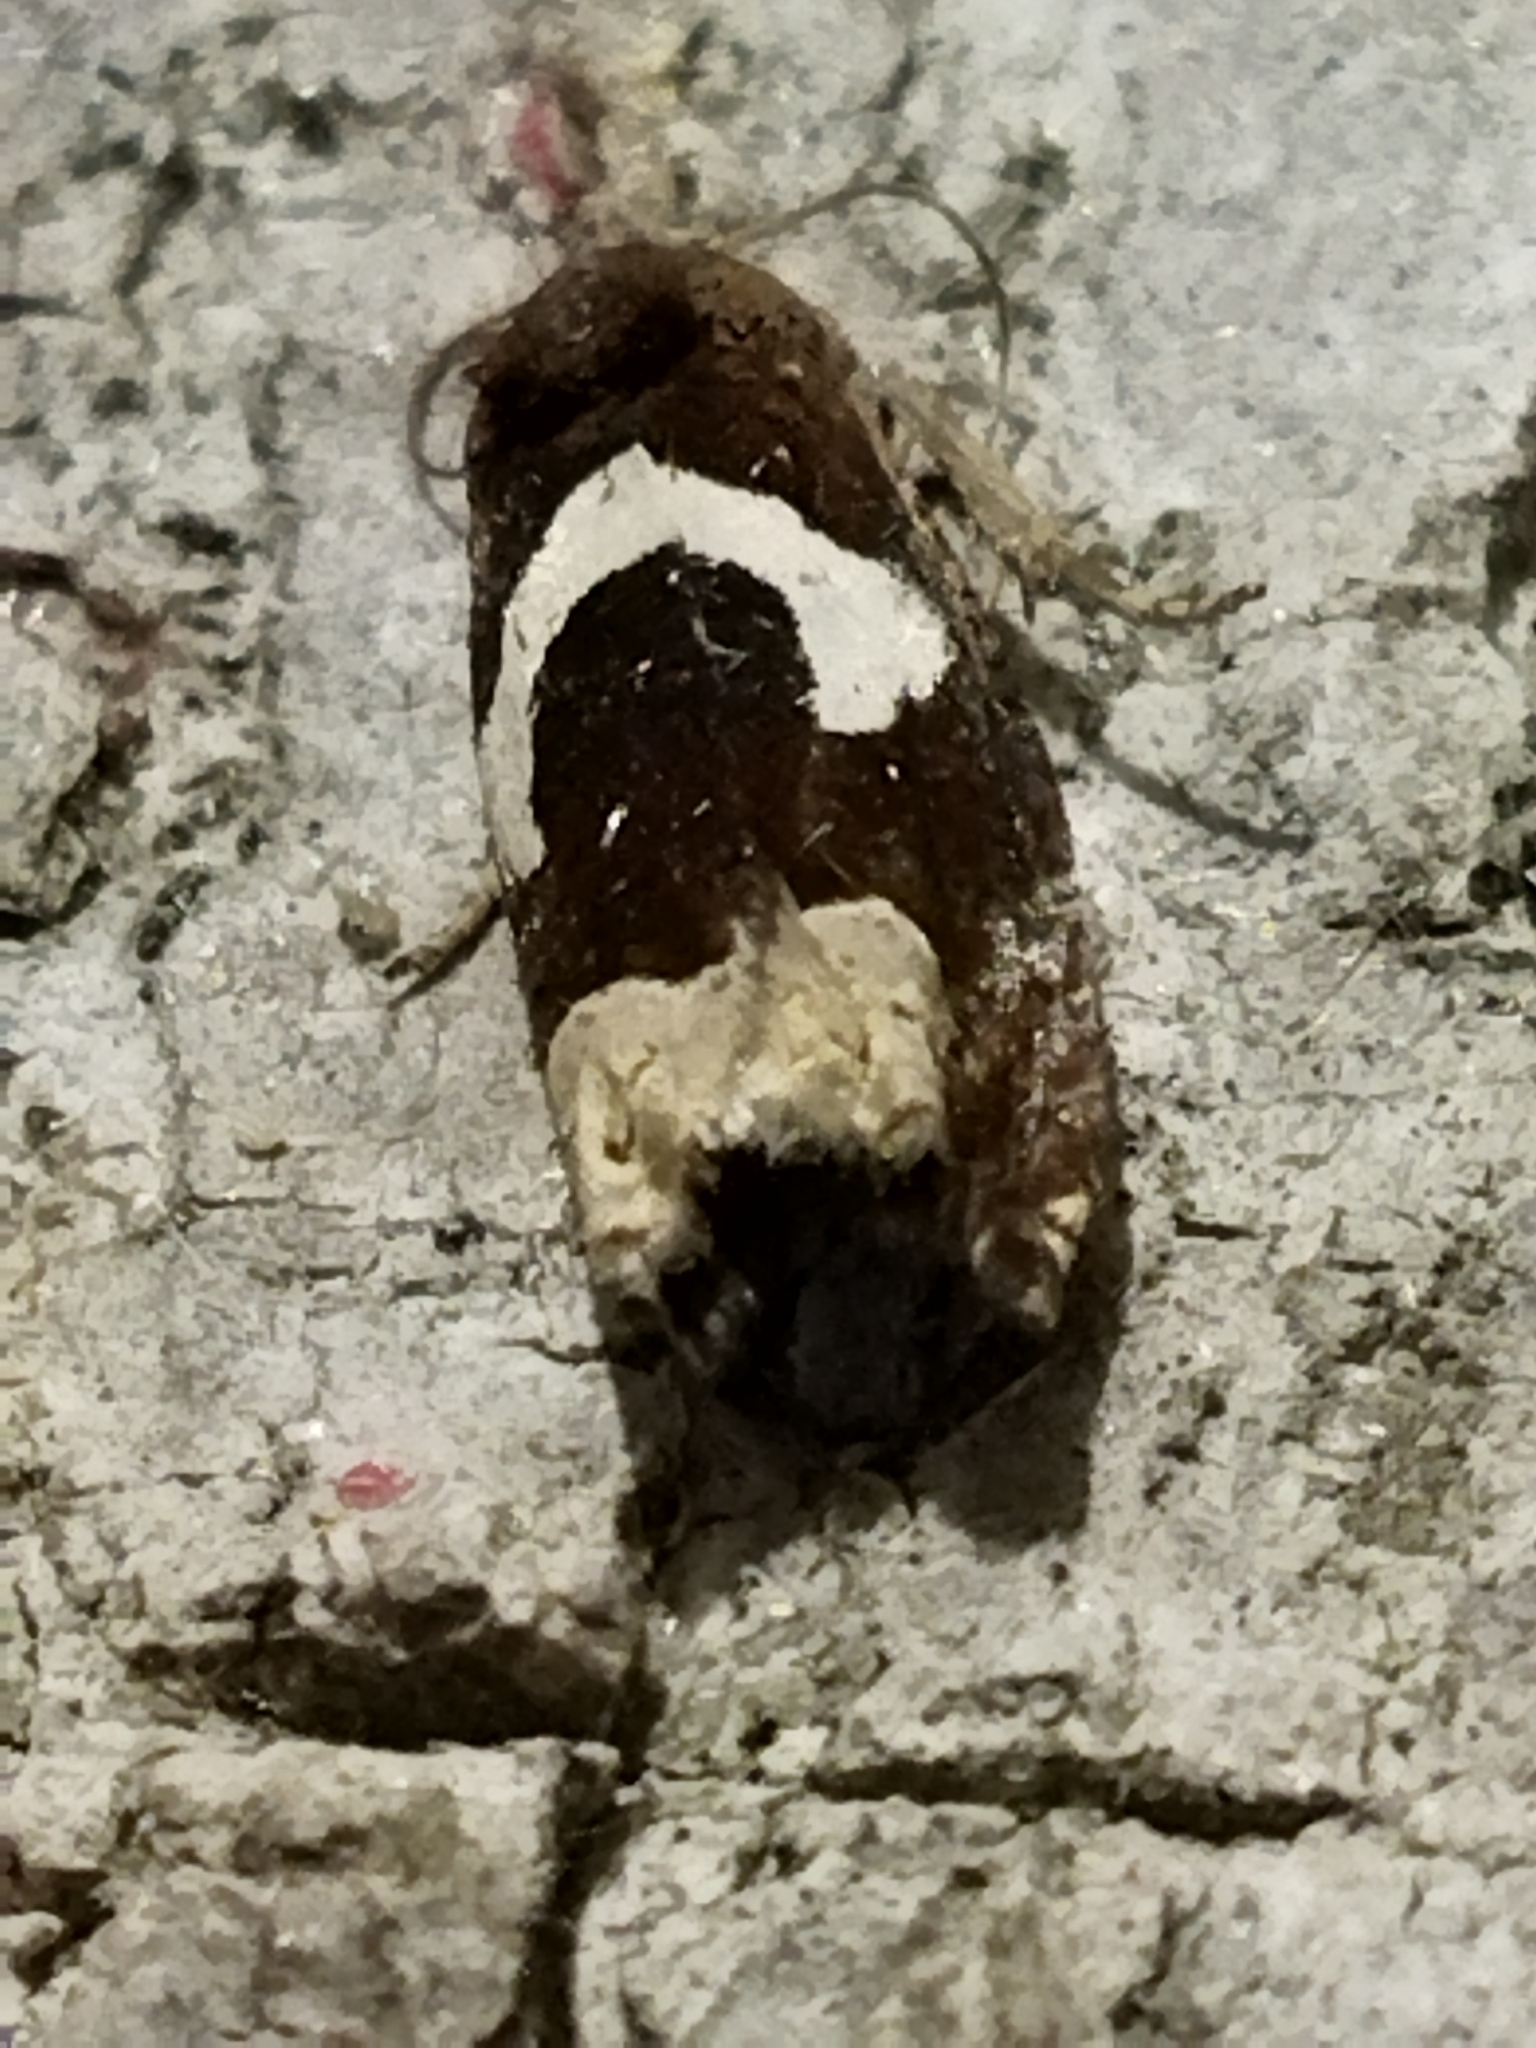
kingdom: Animalia
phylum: Arthropoda
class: Insecta
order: Lepidoptera
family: Tortricidae
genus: Epiblema
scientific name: Epiblema foenella
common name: White-foot bell
